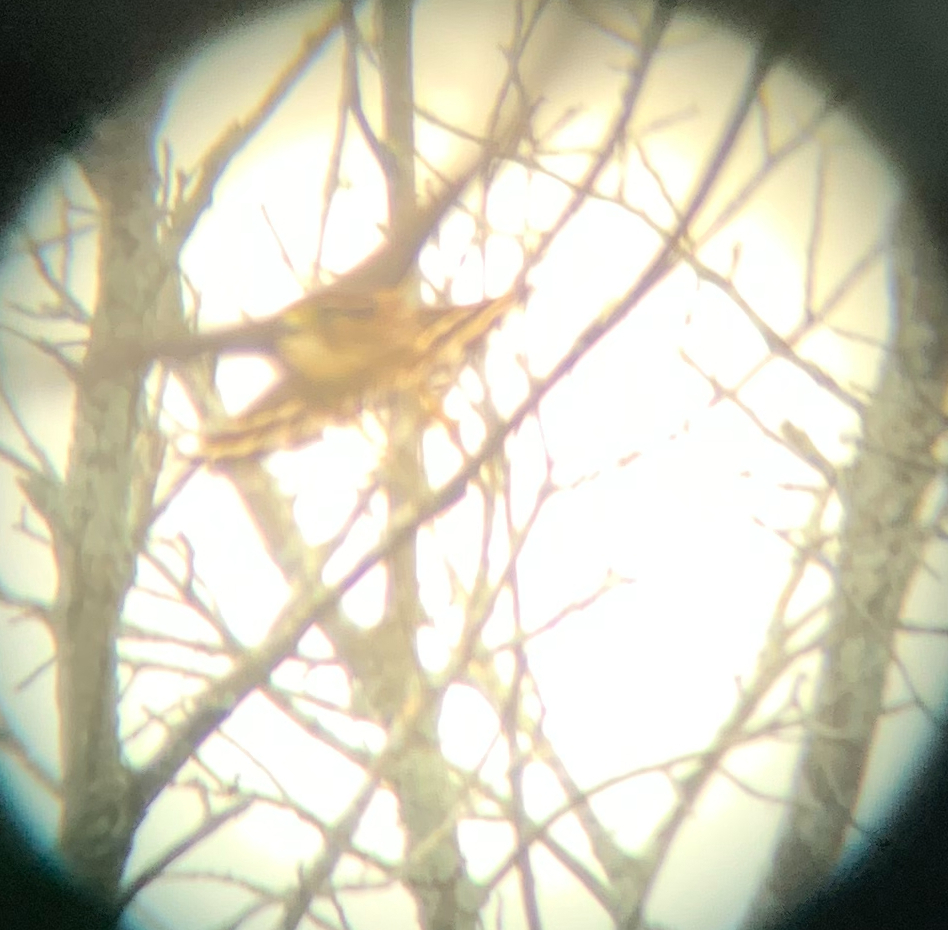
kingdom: Animalia
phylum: Chordata
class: Aves
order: Falconiformes
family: Falconidae
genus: Falco
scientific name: Falco columbarius
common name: Merlin
